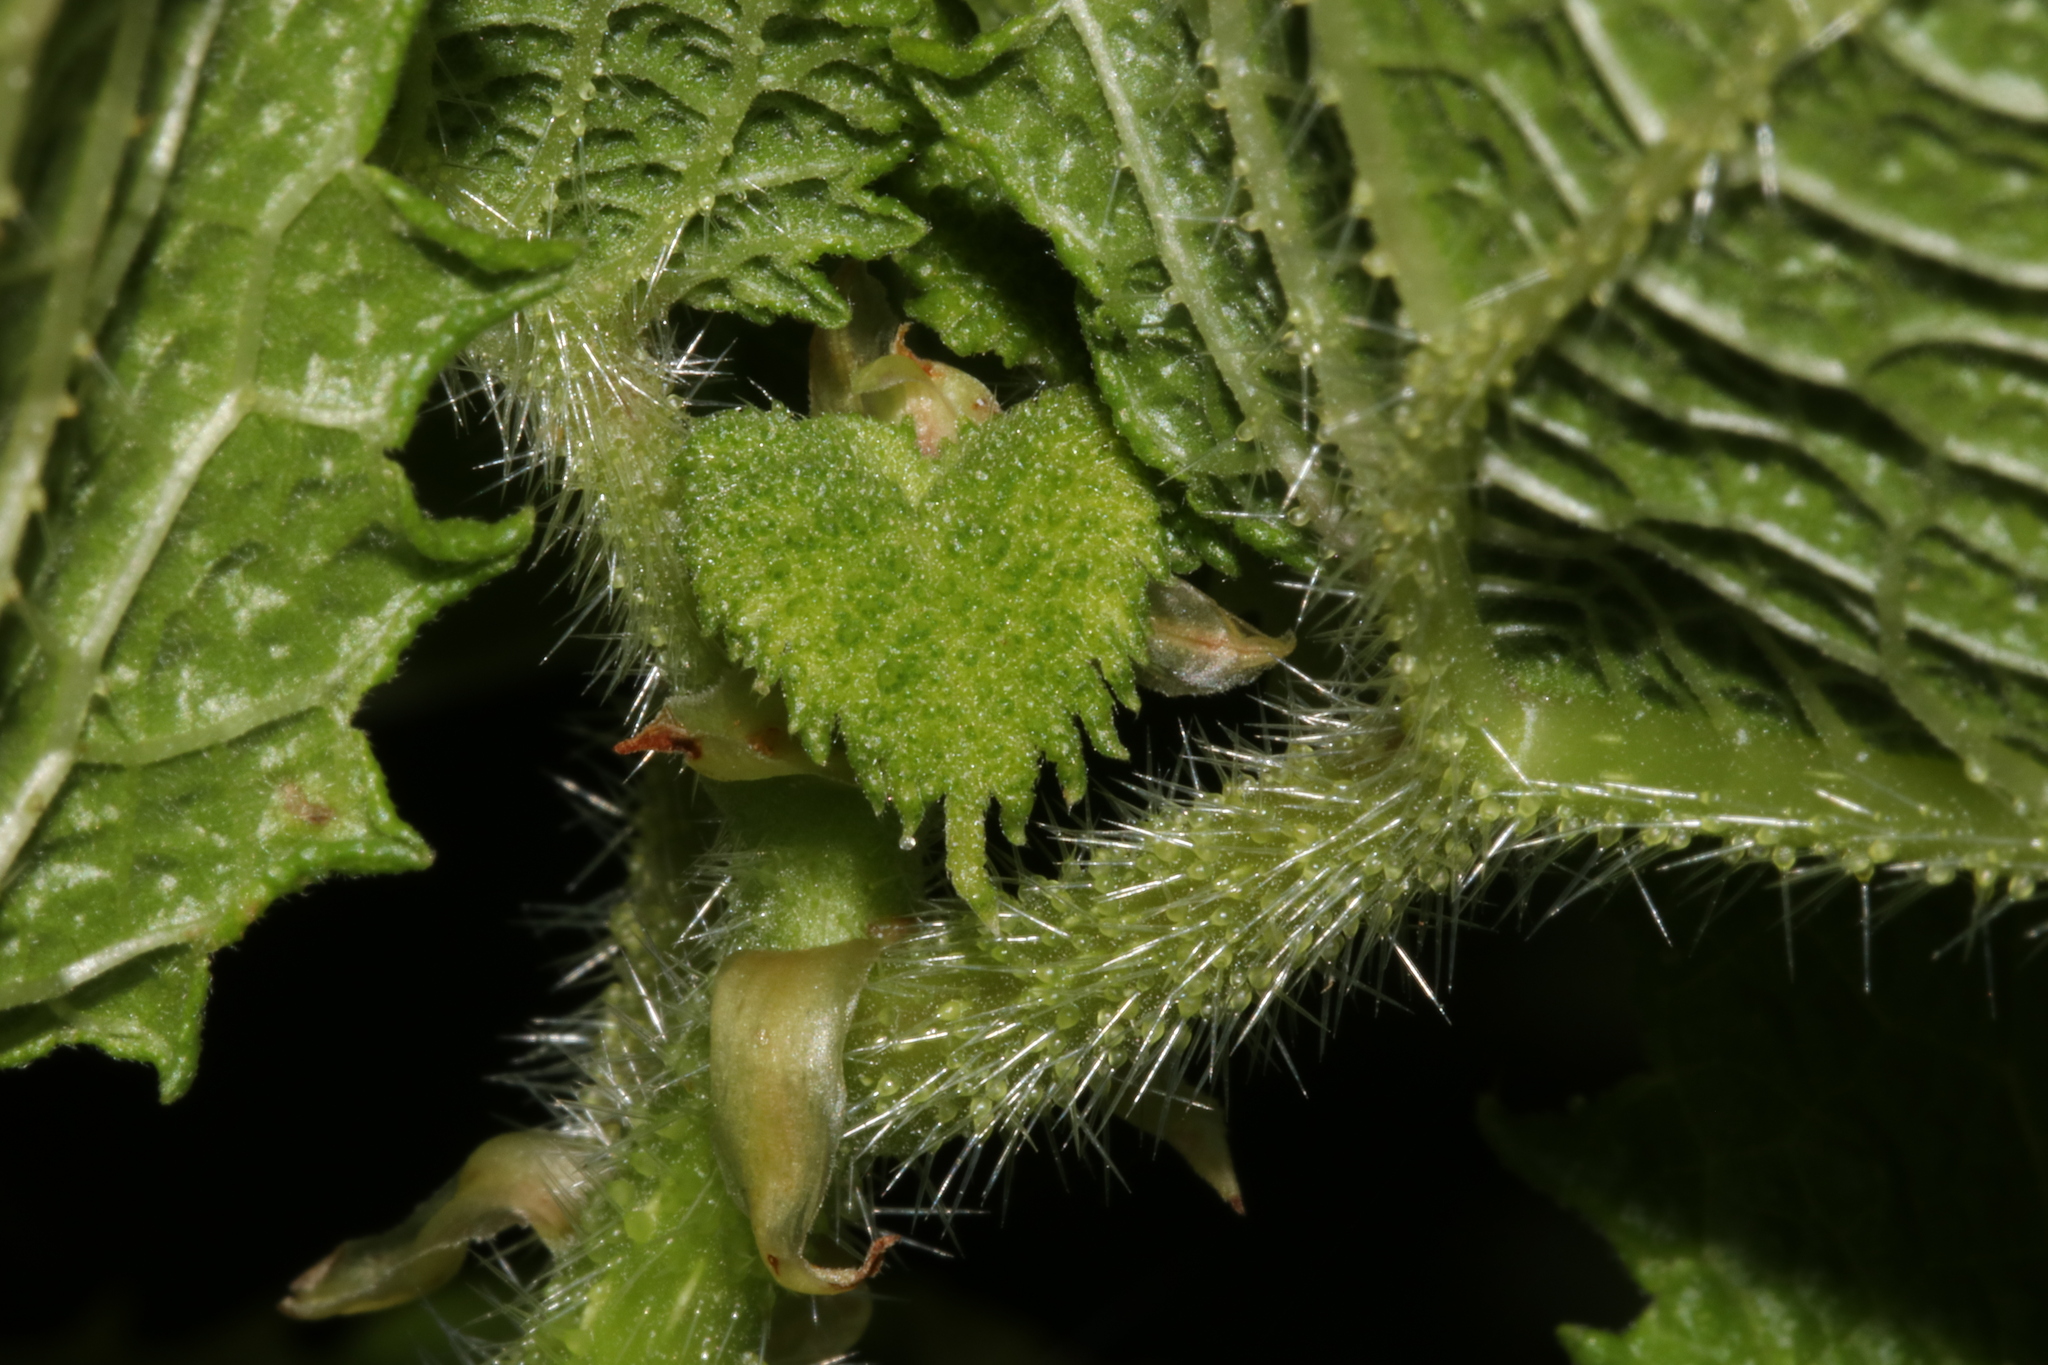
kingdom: Plantae
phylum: Tracheophyta
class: Magnoliopsida
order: Rosales
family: Urticaceae
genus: Obetia
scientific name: Obetia tenax
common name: Rock tree nettle
